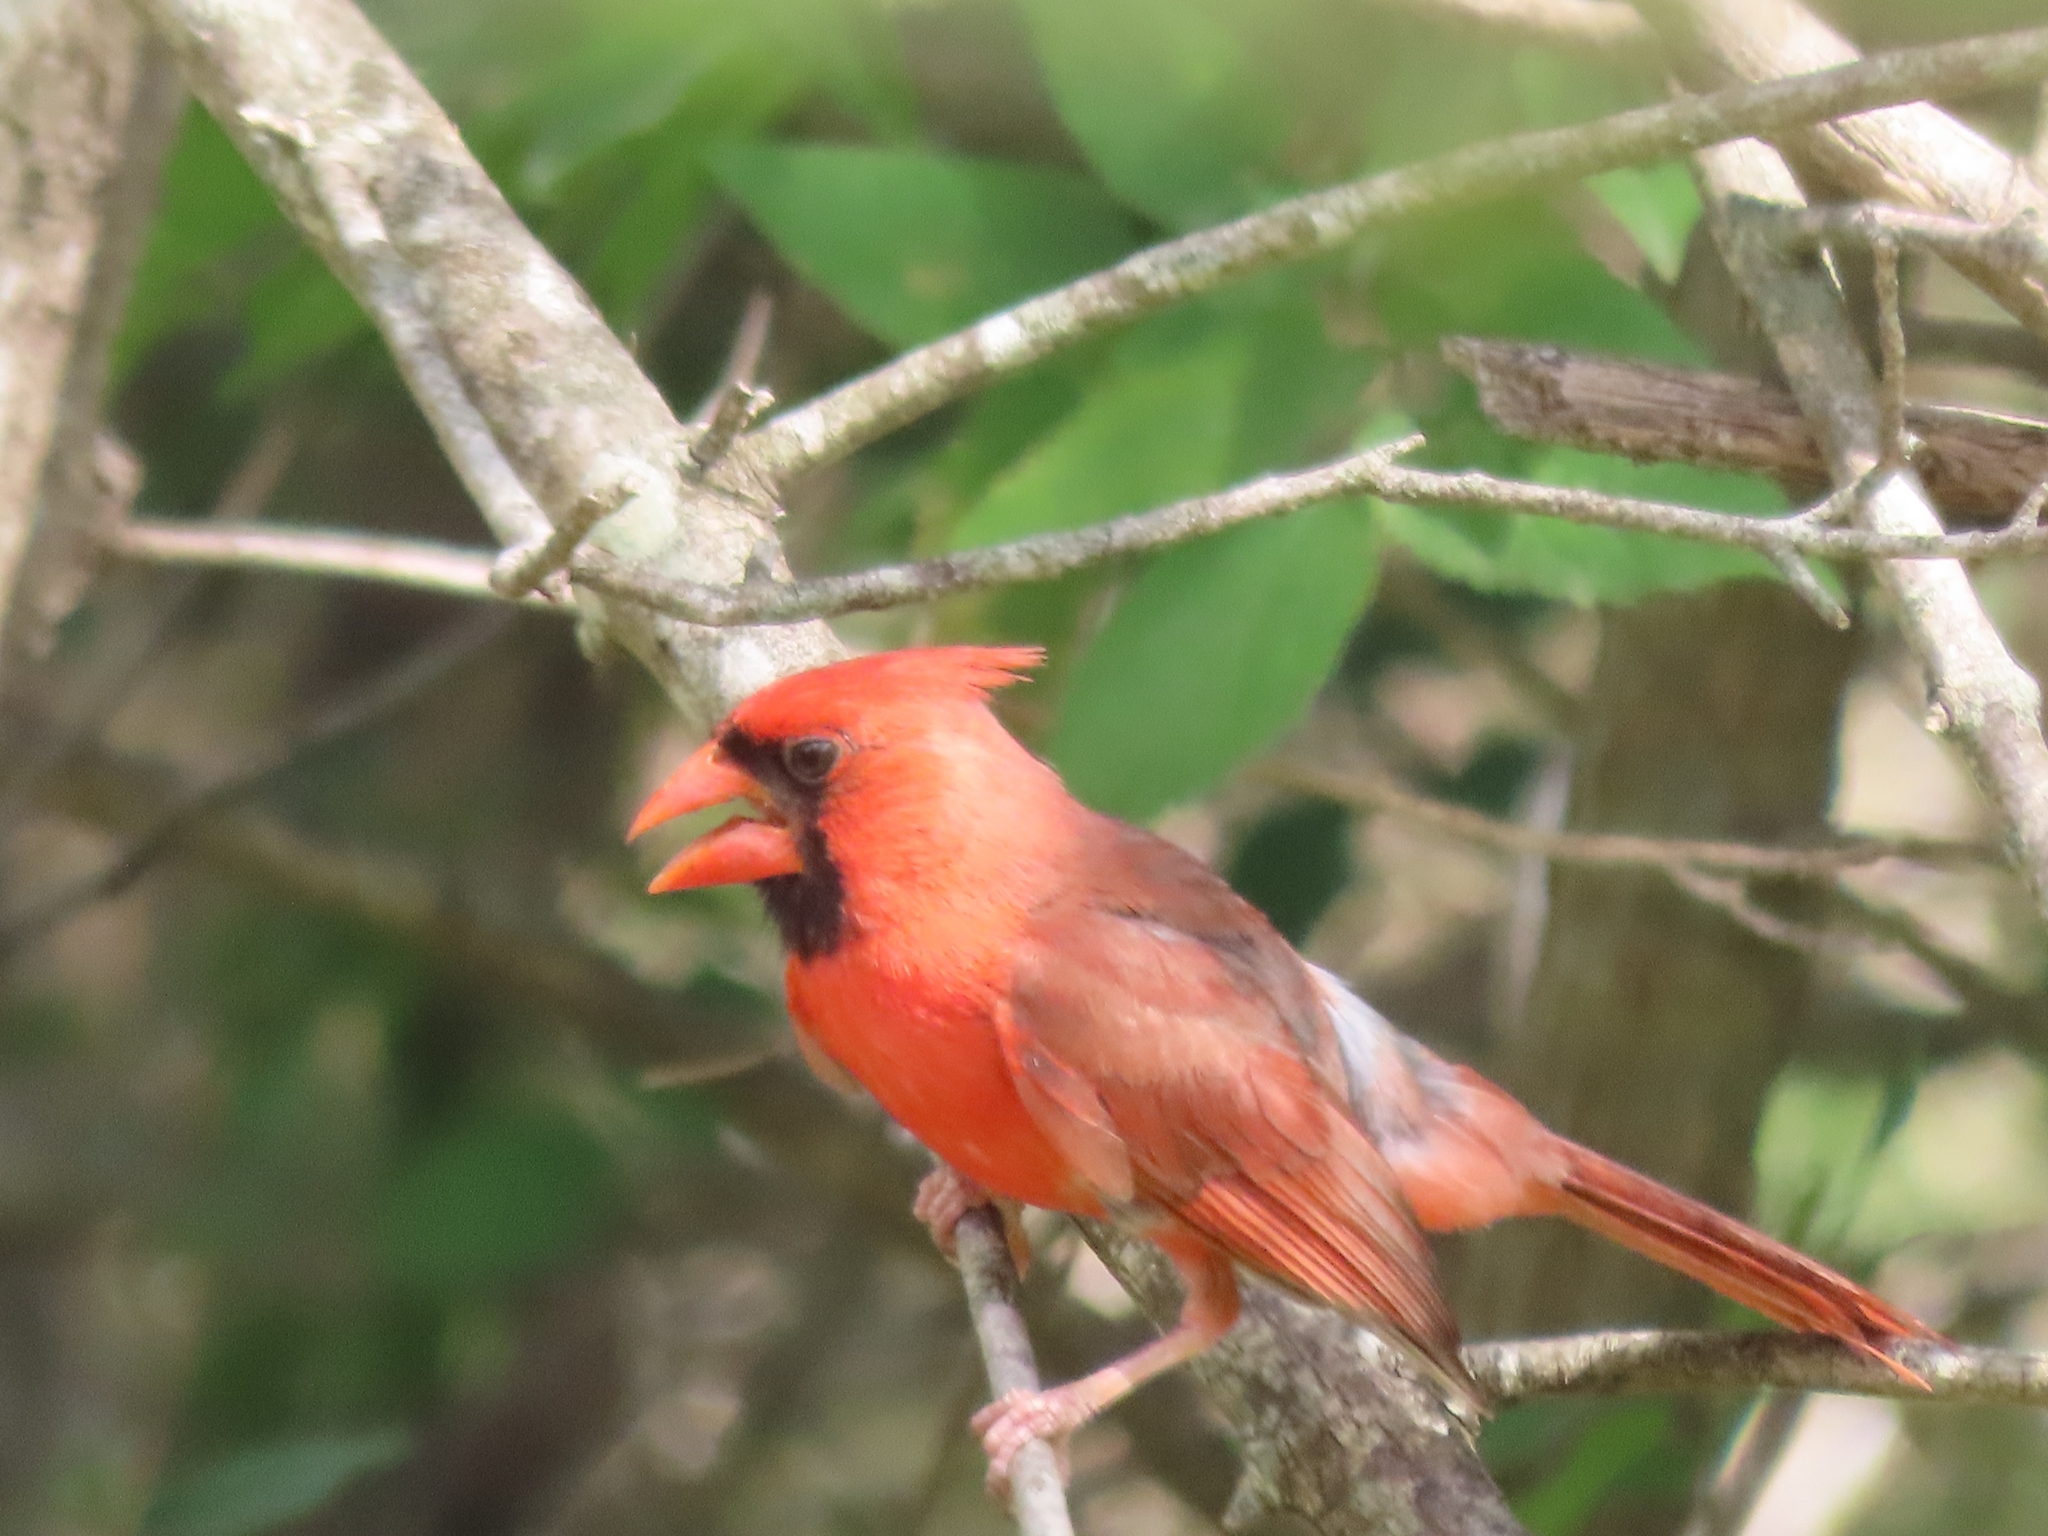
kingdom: Animalia
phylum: Chordata
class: Aves
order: Passeriformes
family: Cardinalidae
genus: Cardinalis
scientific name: Cardinalis cardinalis
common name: Northern cardinal
